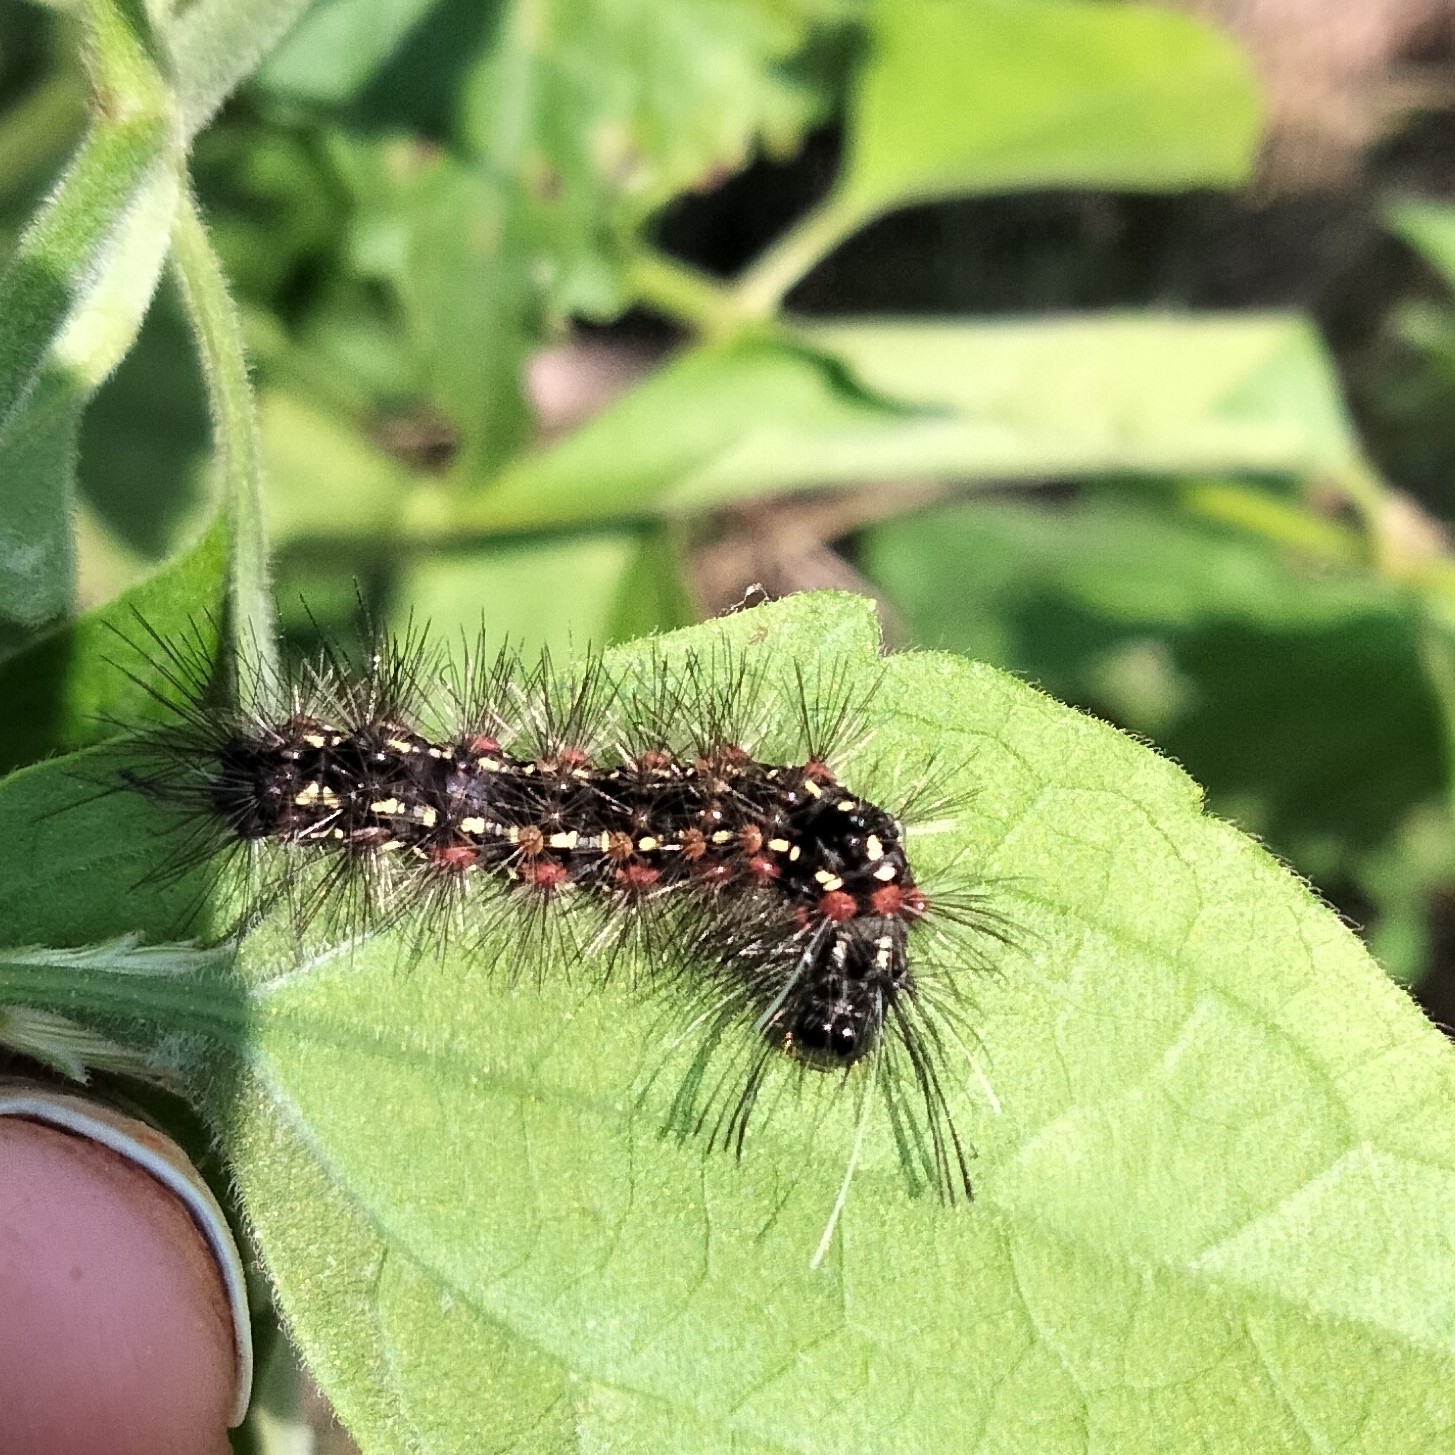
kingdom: Animalia
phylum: Arthropoda
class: Insecta
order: Lepidoptera
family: Erebidae
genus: Pareuchaetes
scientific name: Pareuchaetes pseudoinsulata
